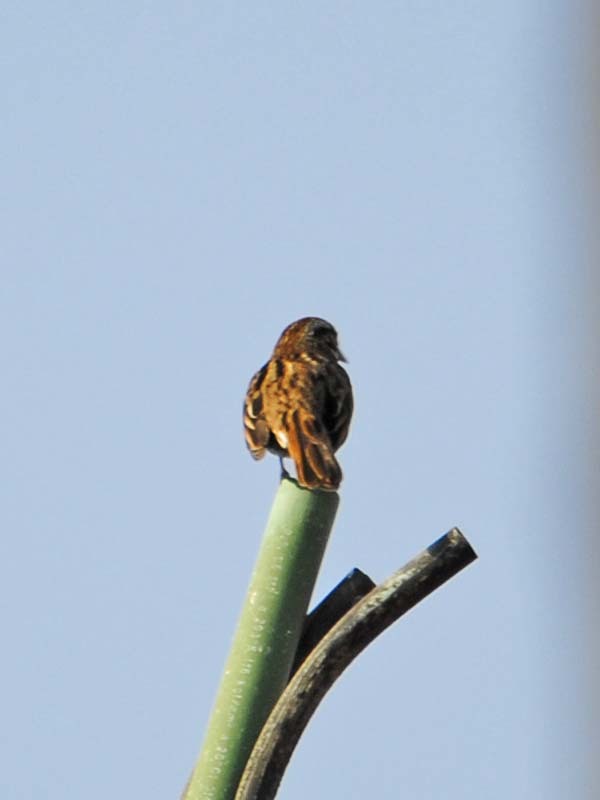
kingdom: Animalia
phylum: Chordata
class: Aves
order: Passeriformes
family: Passerellidae
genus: Melospiza
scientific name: Melospiza melodia
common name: Song sparrow
